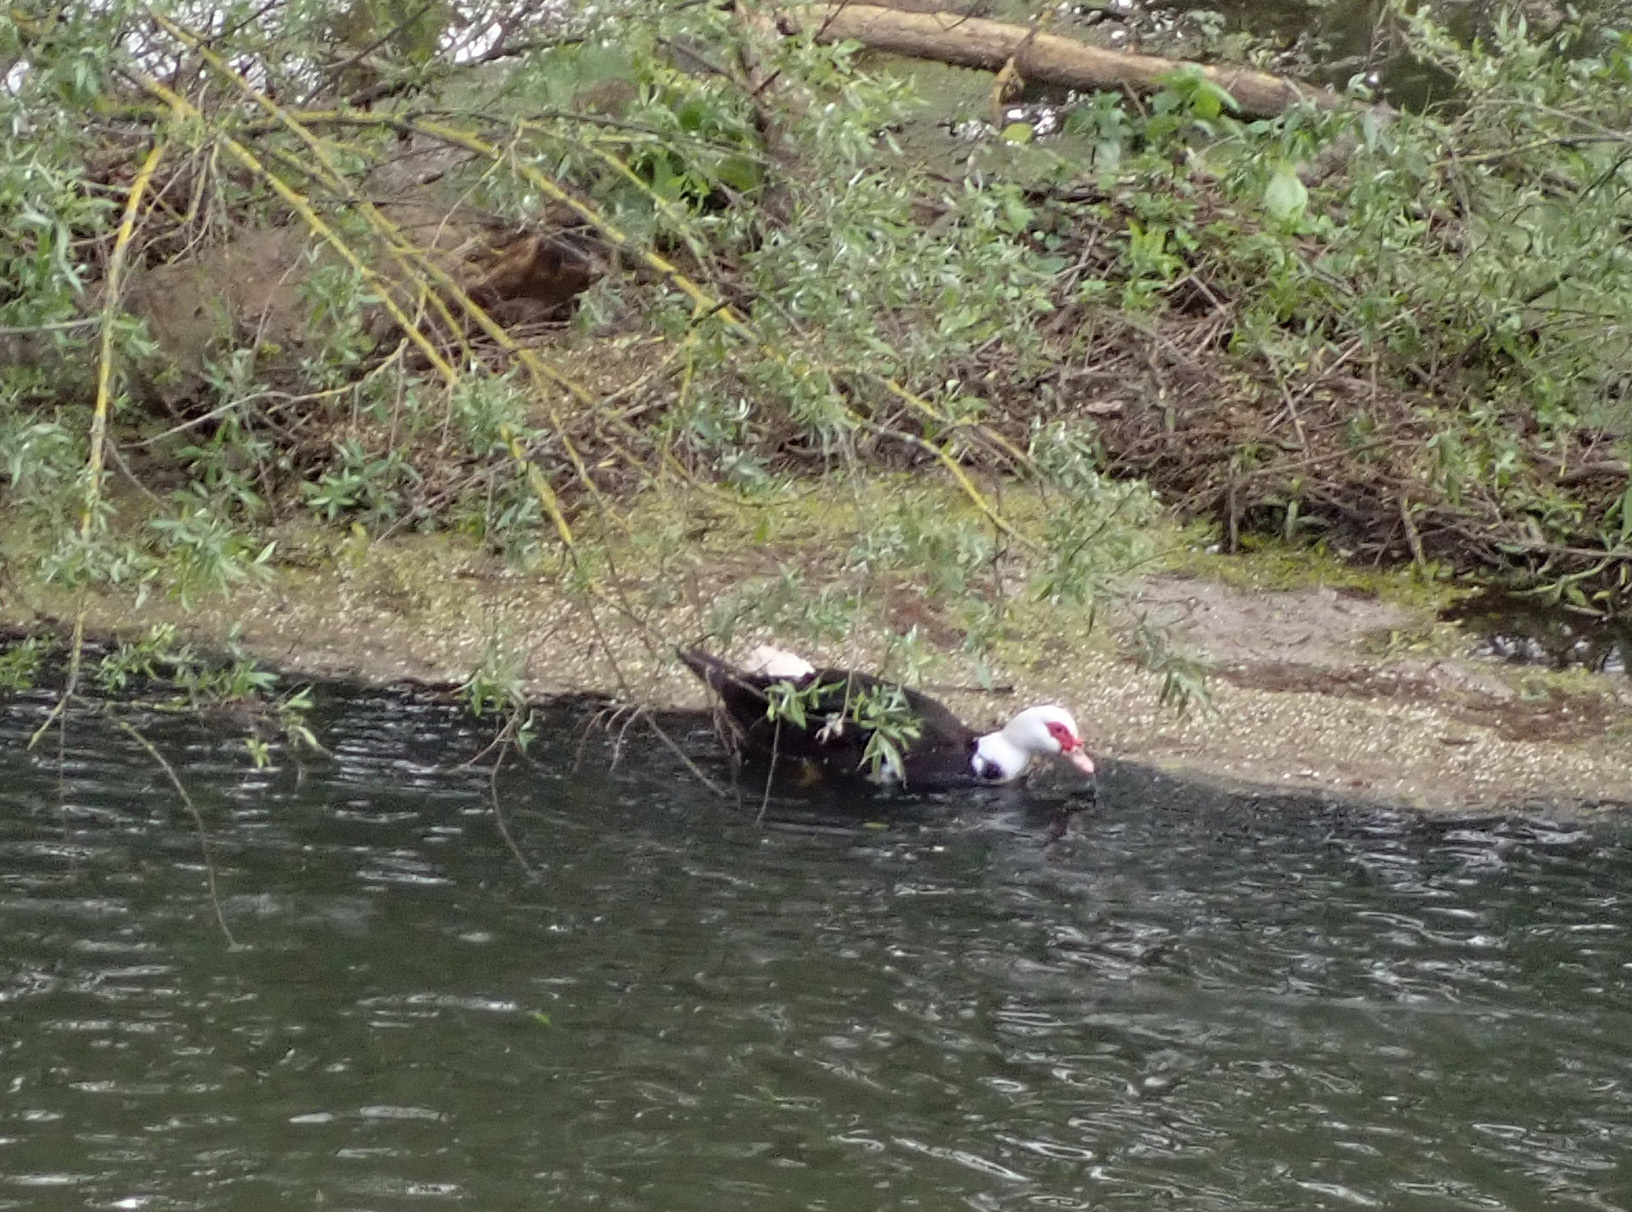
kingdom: Animalia
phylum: Chordata
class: Aves
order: Anseriformes
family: Anatidae
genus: Cairina
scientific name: Cairina moschata
